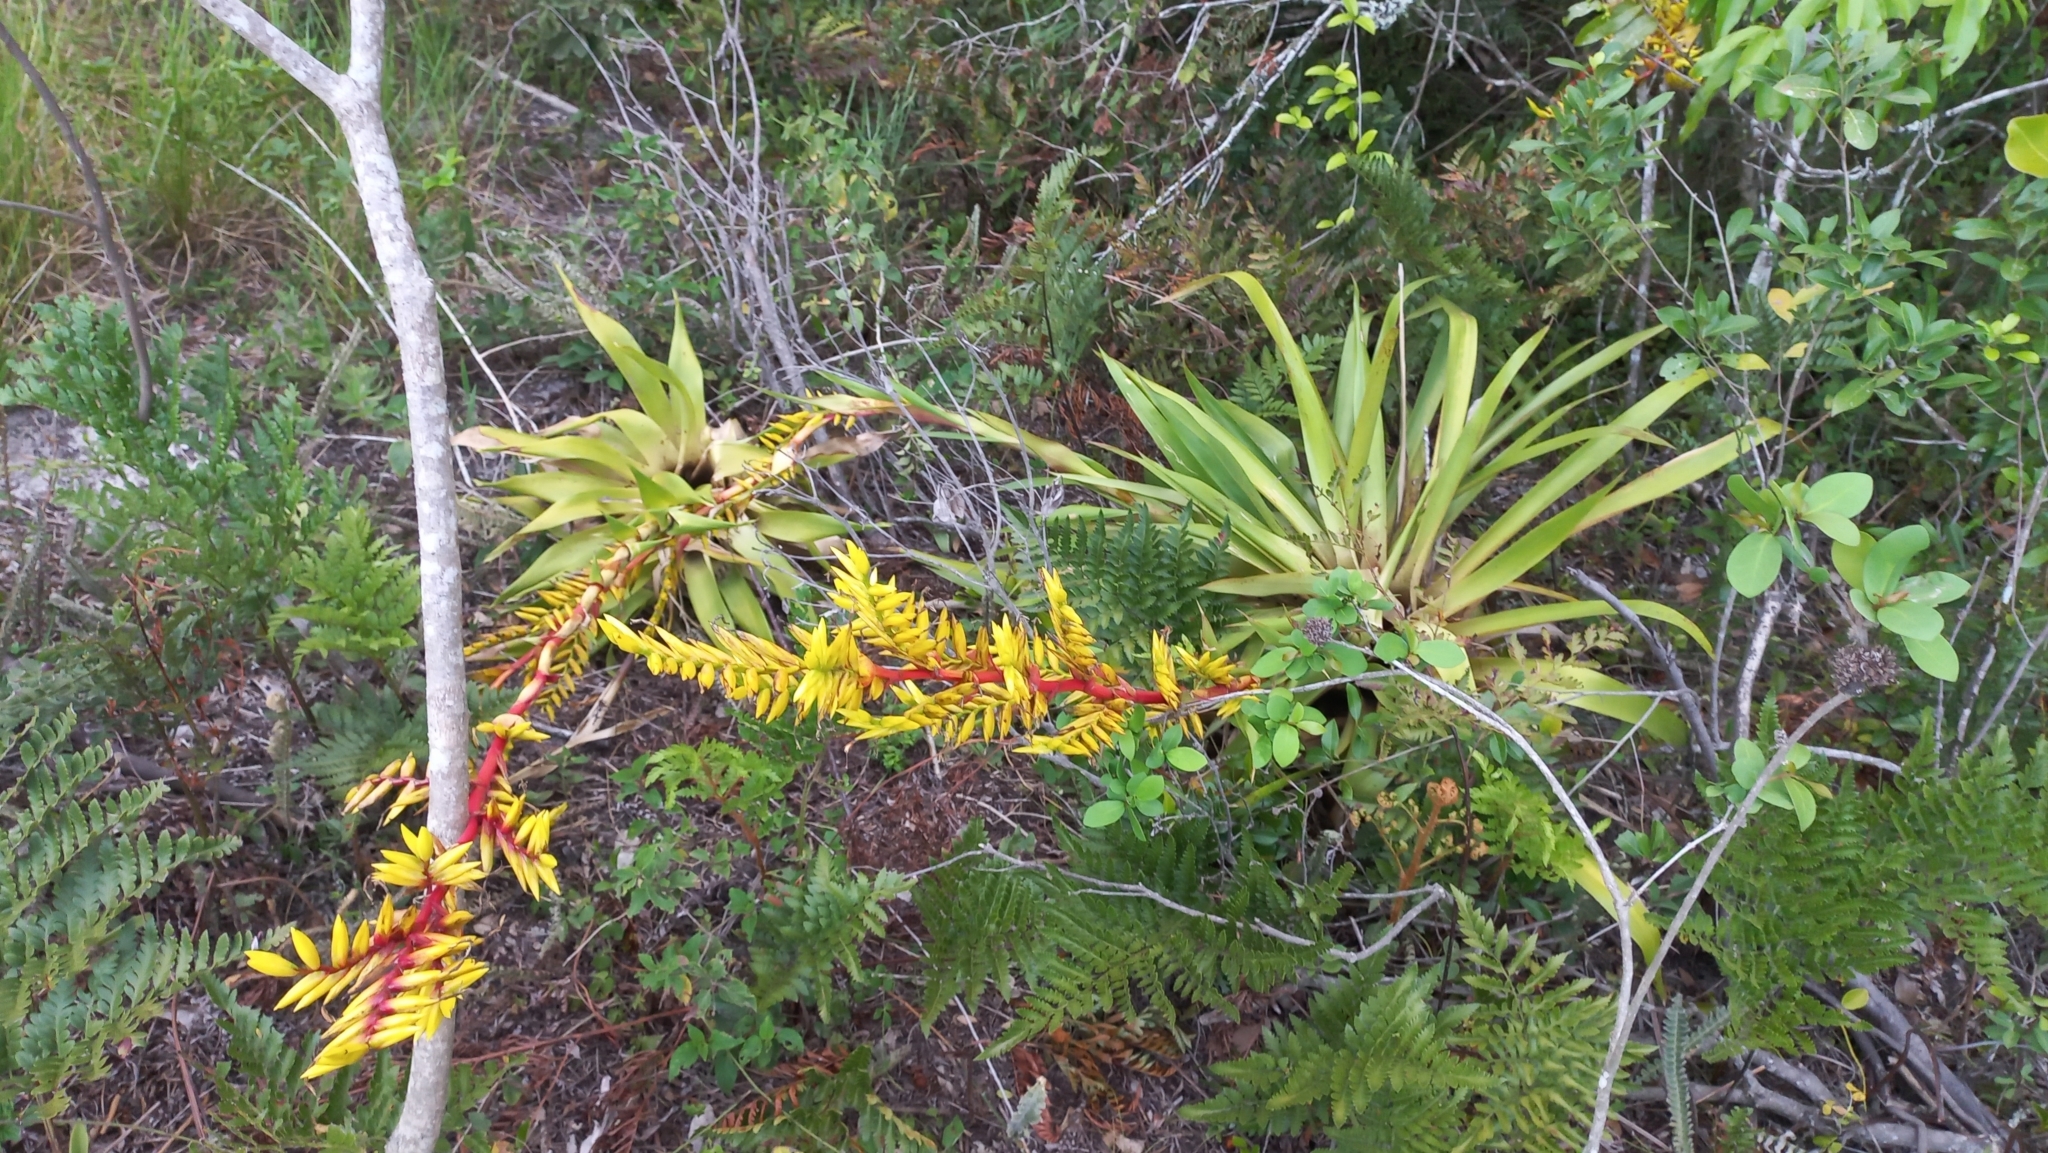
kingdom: Plantae
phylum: Tracheophyta
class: Liliopsida
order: Poales
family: Bromeliaceae
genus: Vriesea
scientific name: Vriesea friburgensis
